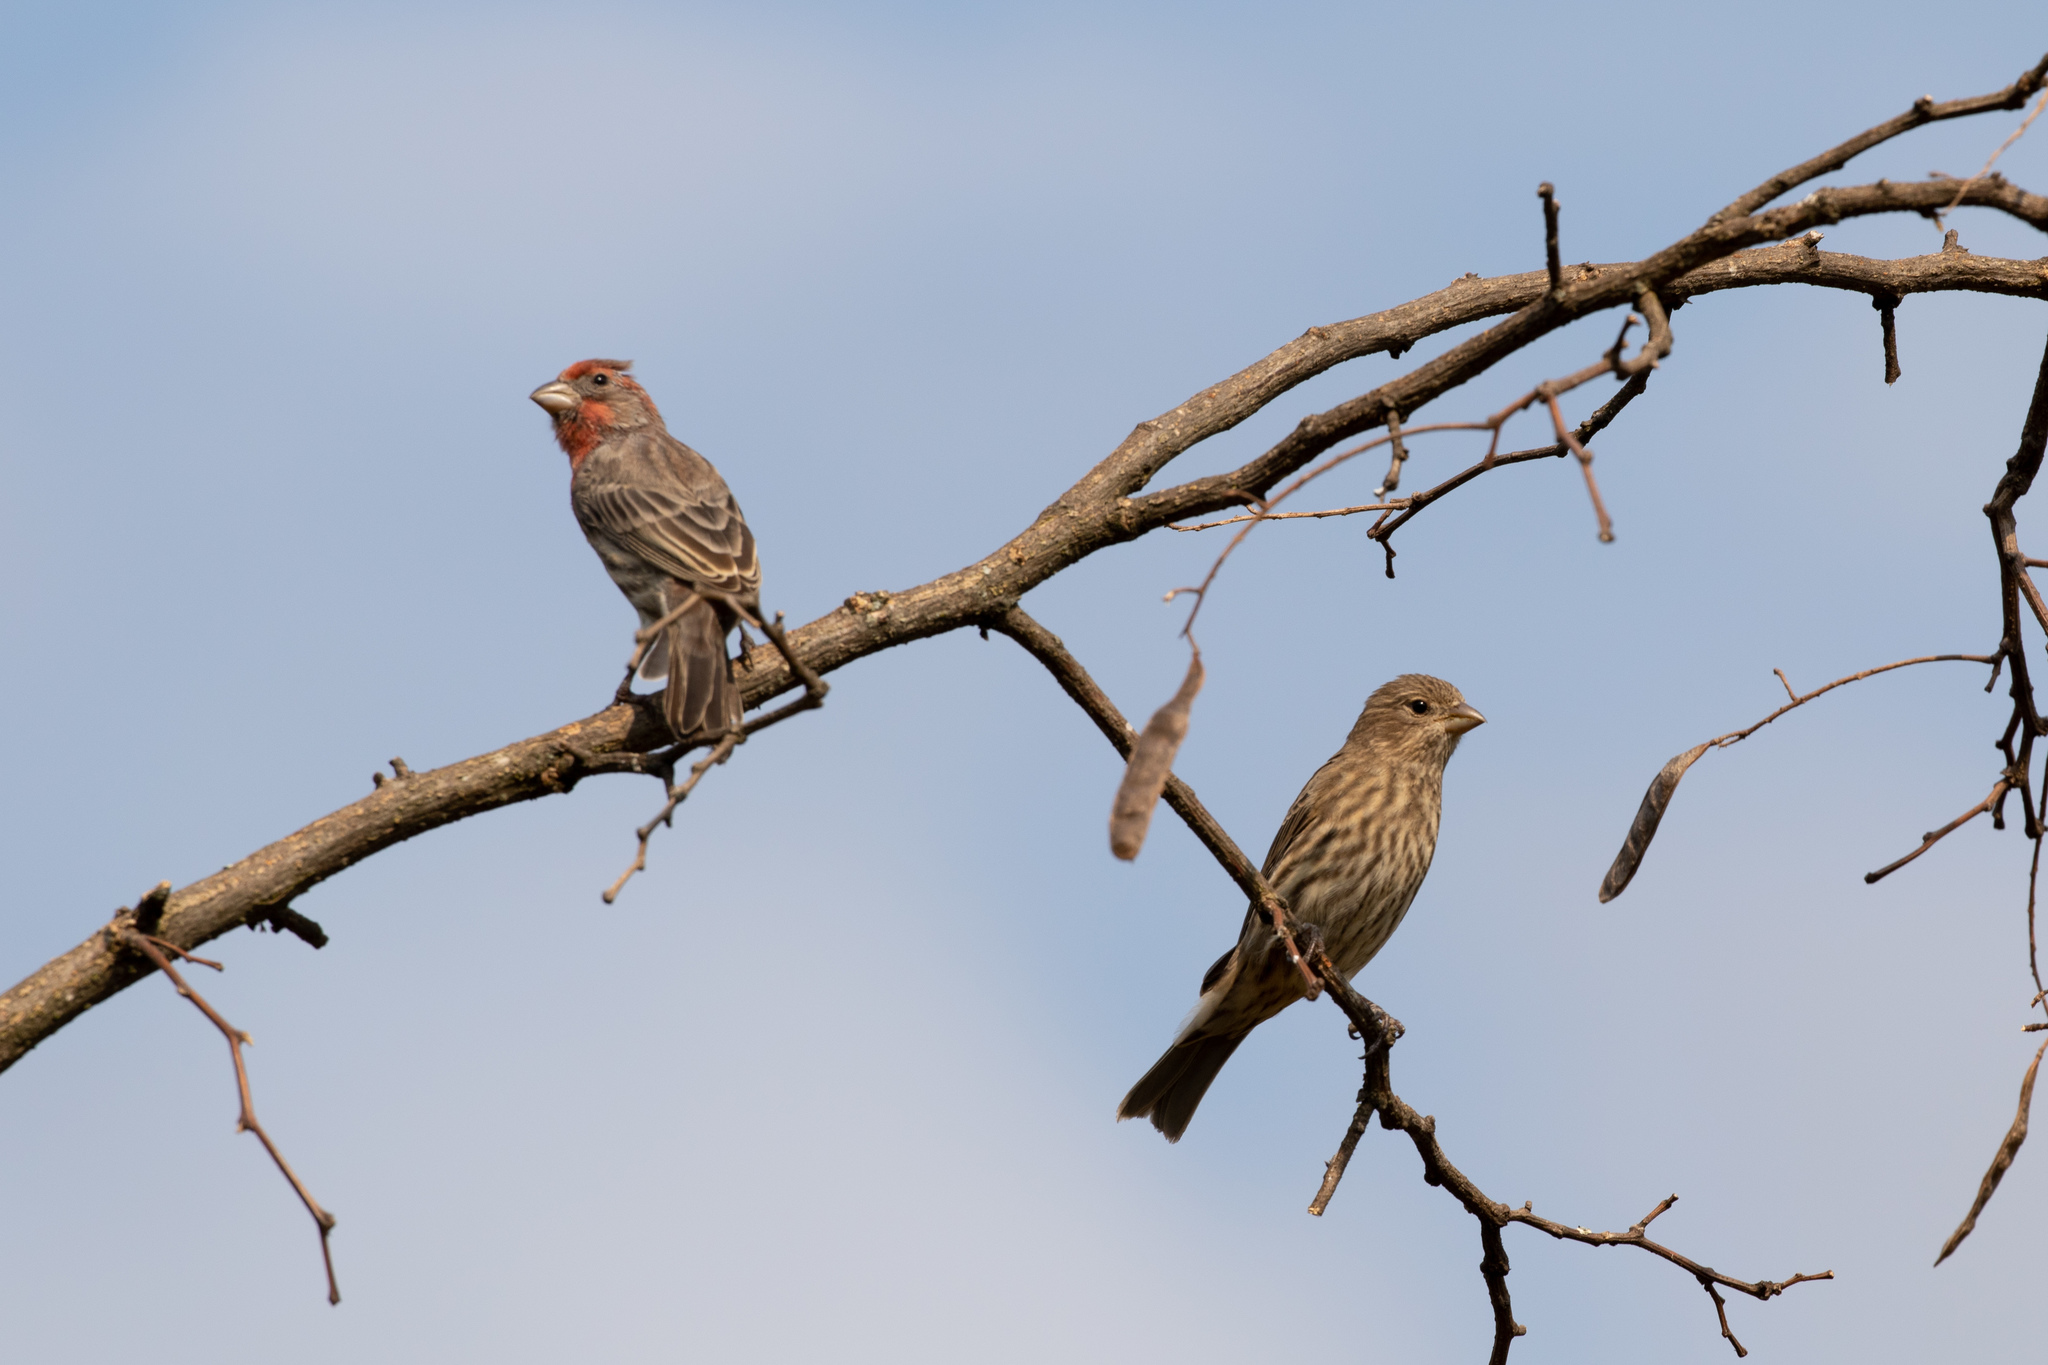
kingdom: Animalia
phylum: Chordata
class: Aves
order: Passeriformes
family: Fringillidae
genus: Haemorhous
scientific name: Haemorhous mexicanus
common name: House finch
